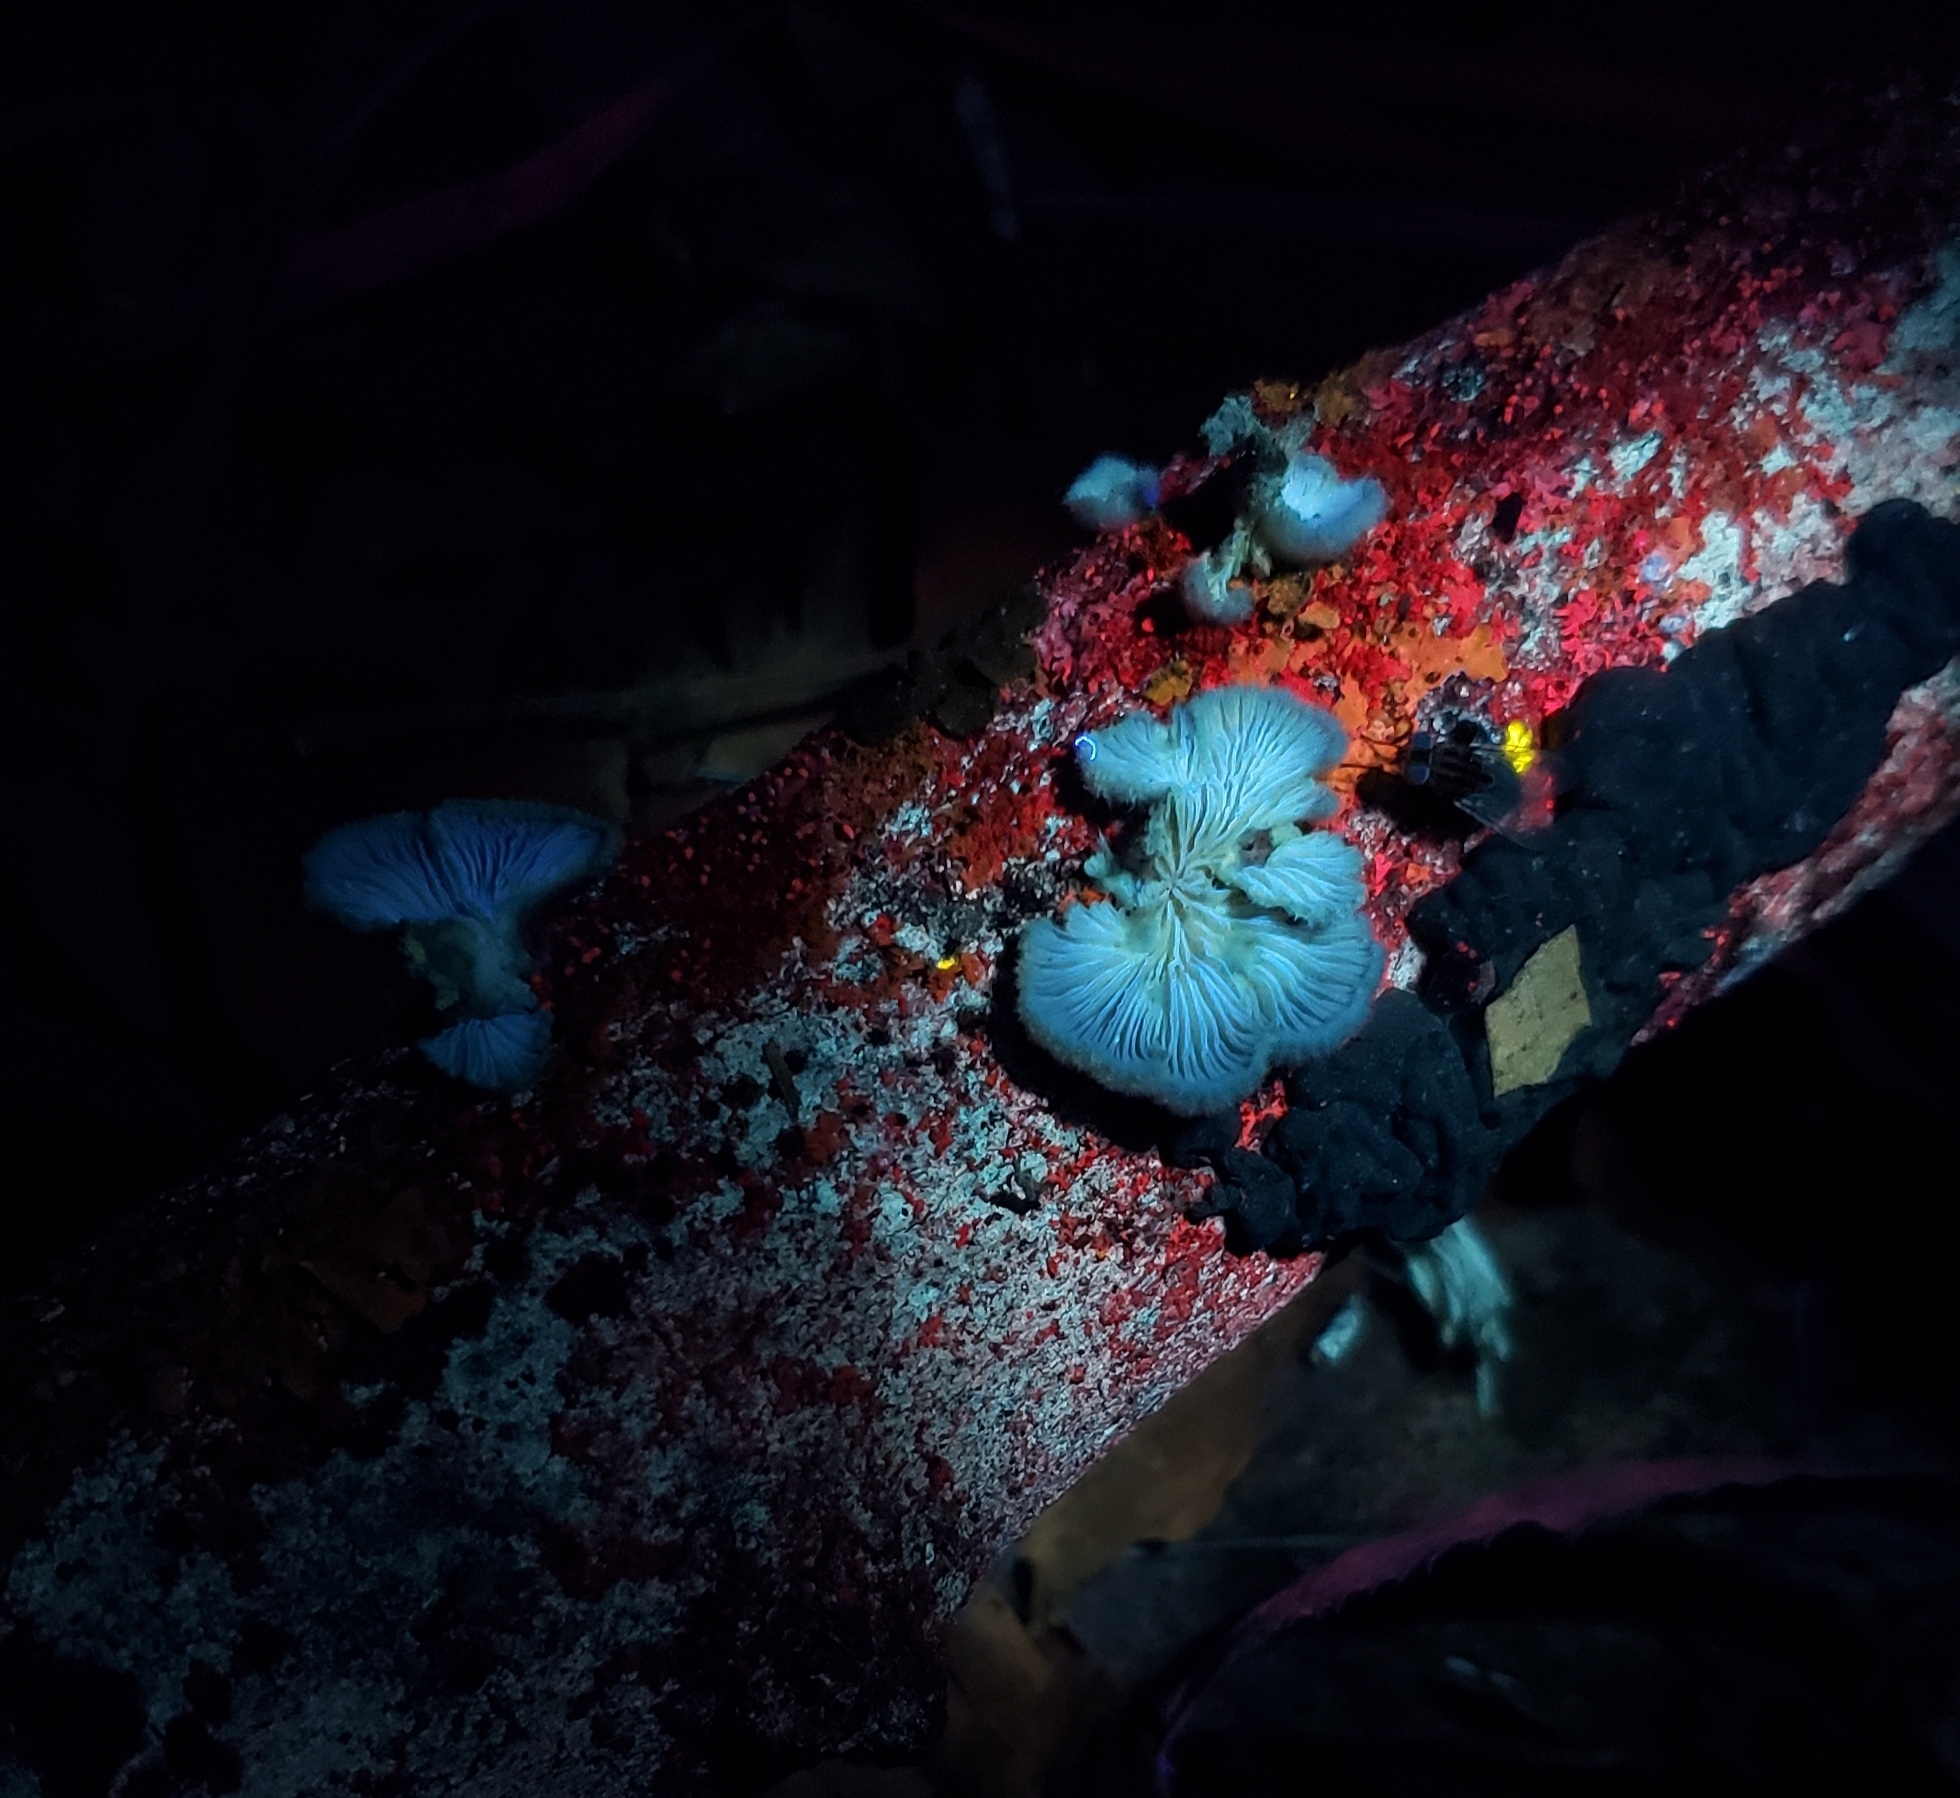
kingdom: Fungi
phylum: Basidiomycota
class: Agaricomycetes
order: Agaricales
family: Schizophyllaceae
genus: Schizophyllum
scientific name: Schizophyllum commune
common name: Common porecrust
